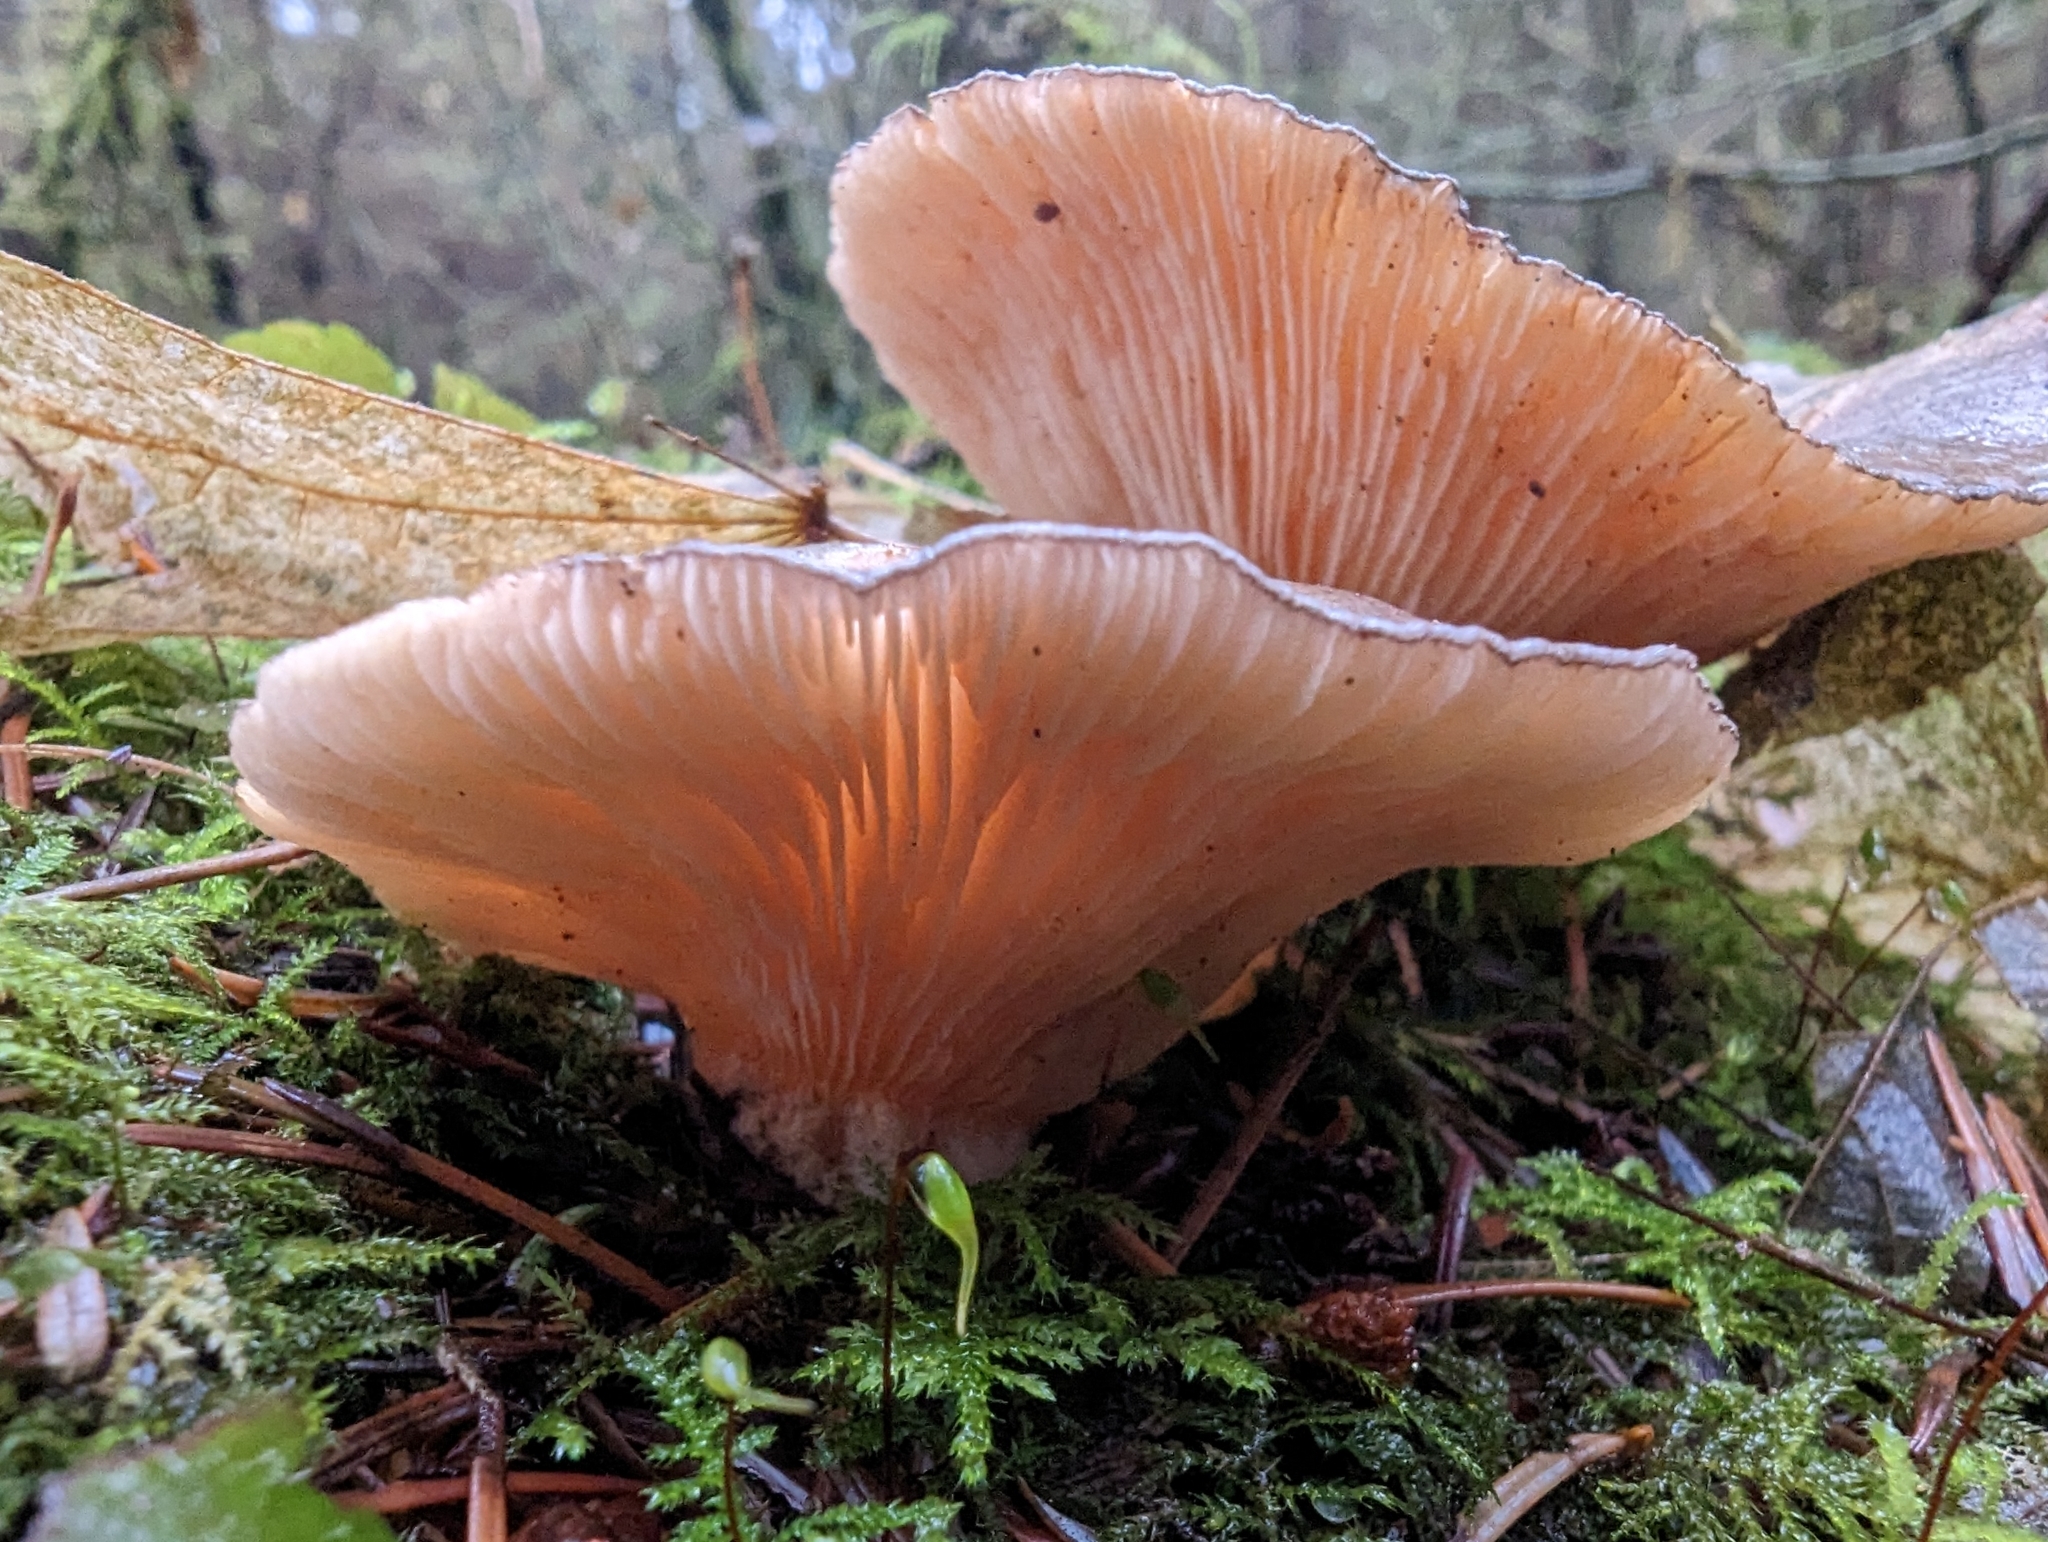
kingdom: Fungi
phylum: Basidiomycota
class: Agaricomycetes
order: Agaricales
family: Sarcomyxaceae
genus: Sarcomyxa
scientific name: Sarcomyxa serotina
